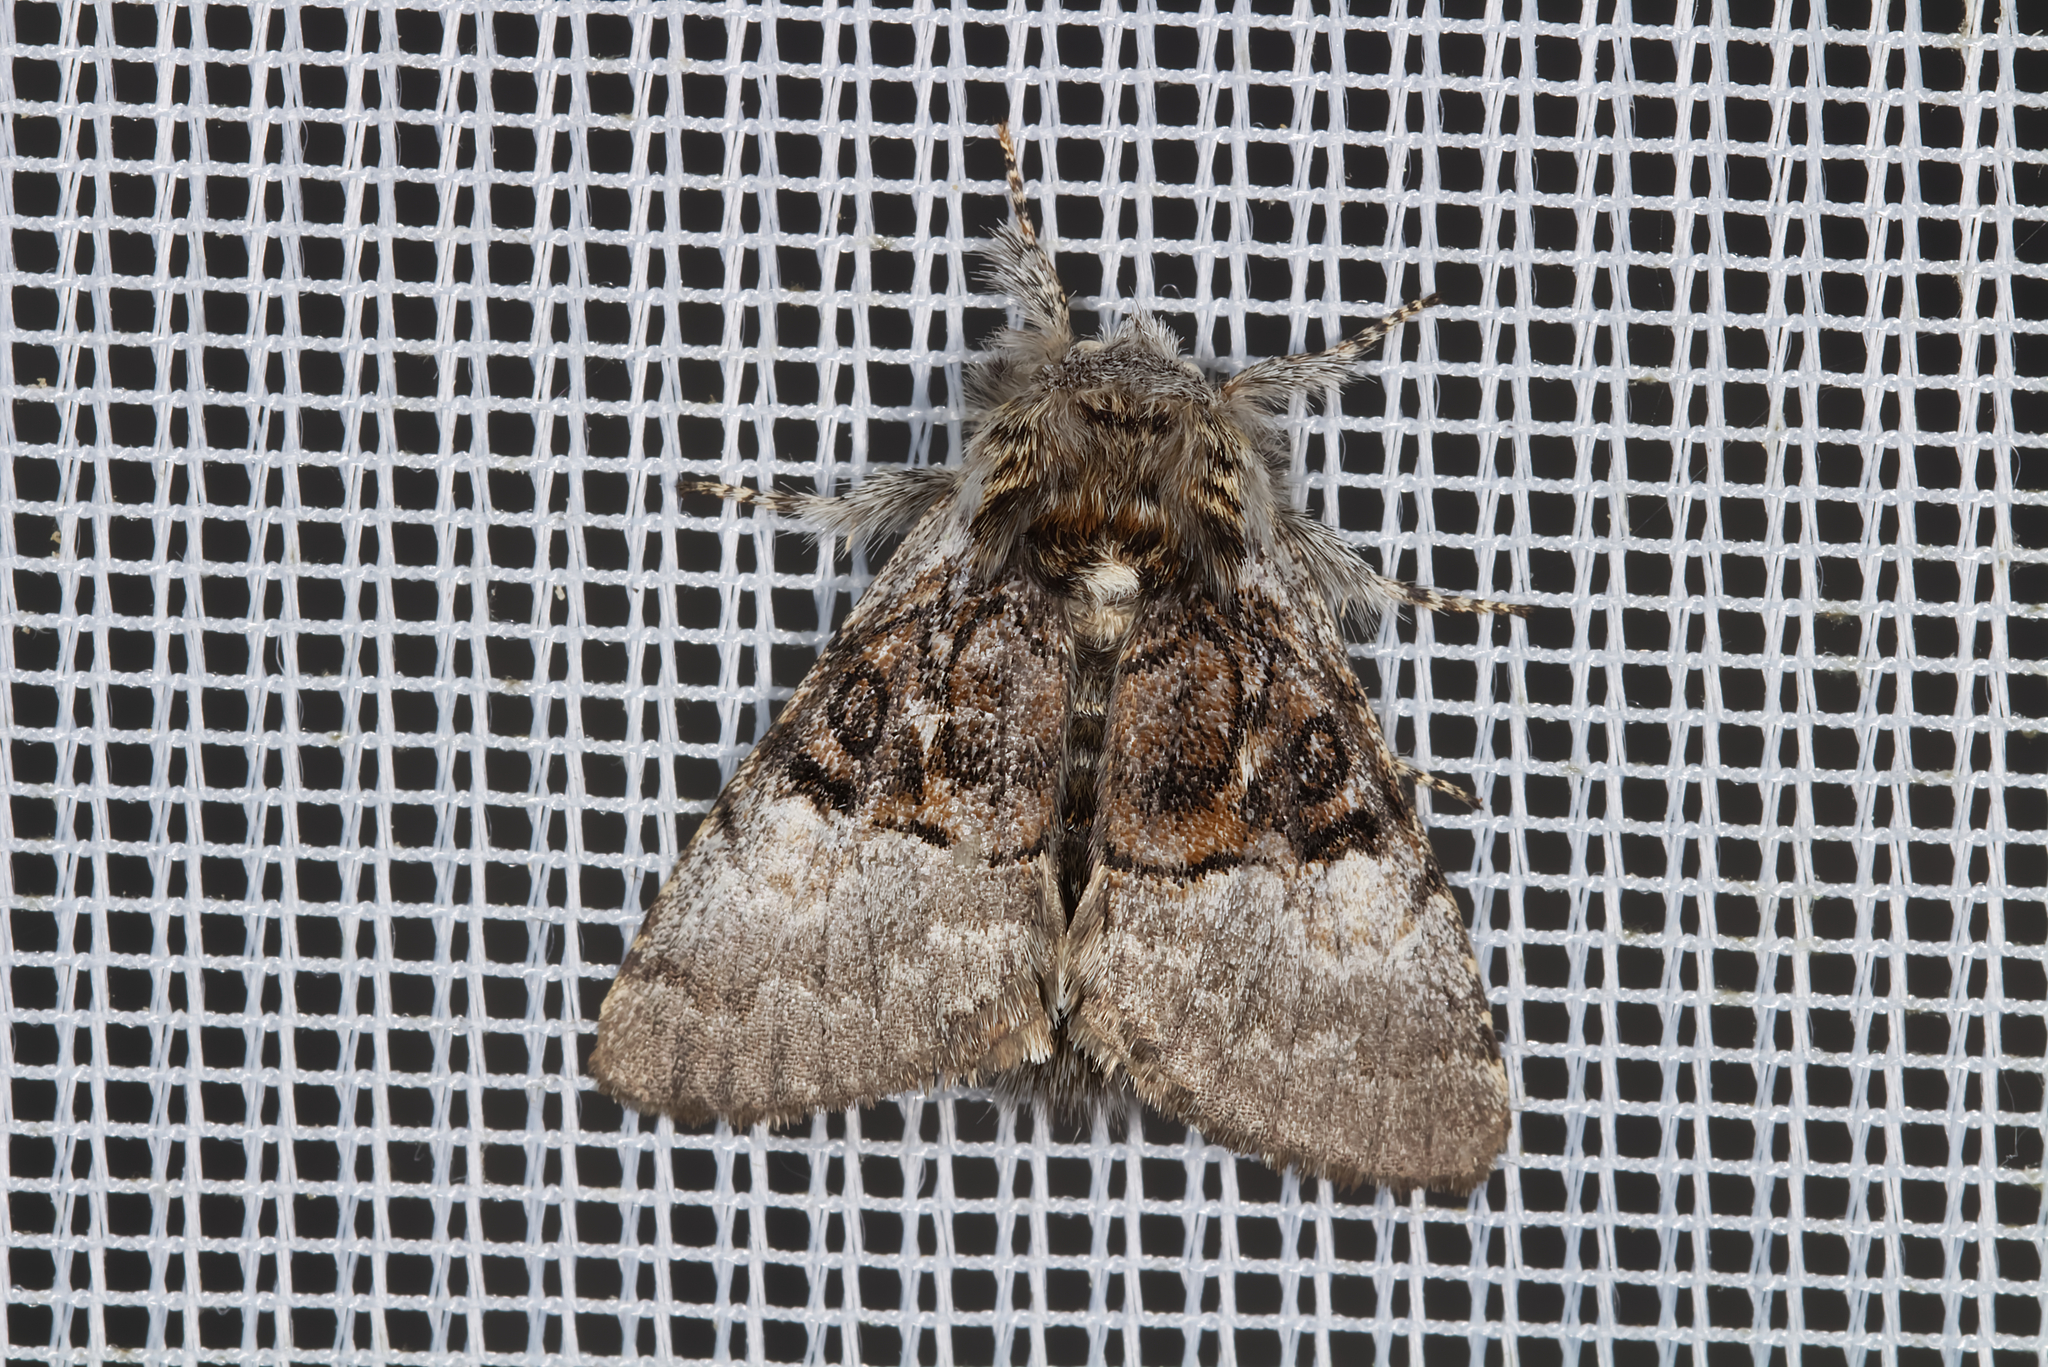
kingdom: Animalia
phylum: Arthropoda
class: Insecta
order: Lepidoptera
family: Noctuidae
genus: Colocasia
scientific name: Colocasia coryli
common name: Nut-tree tussock
